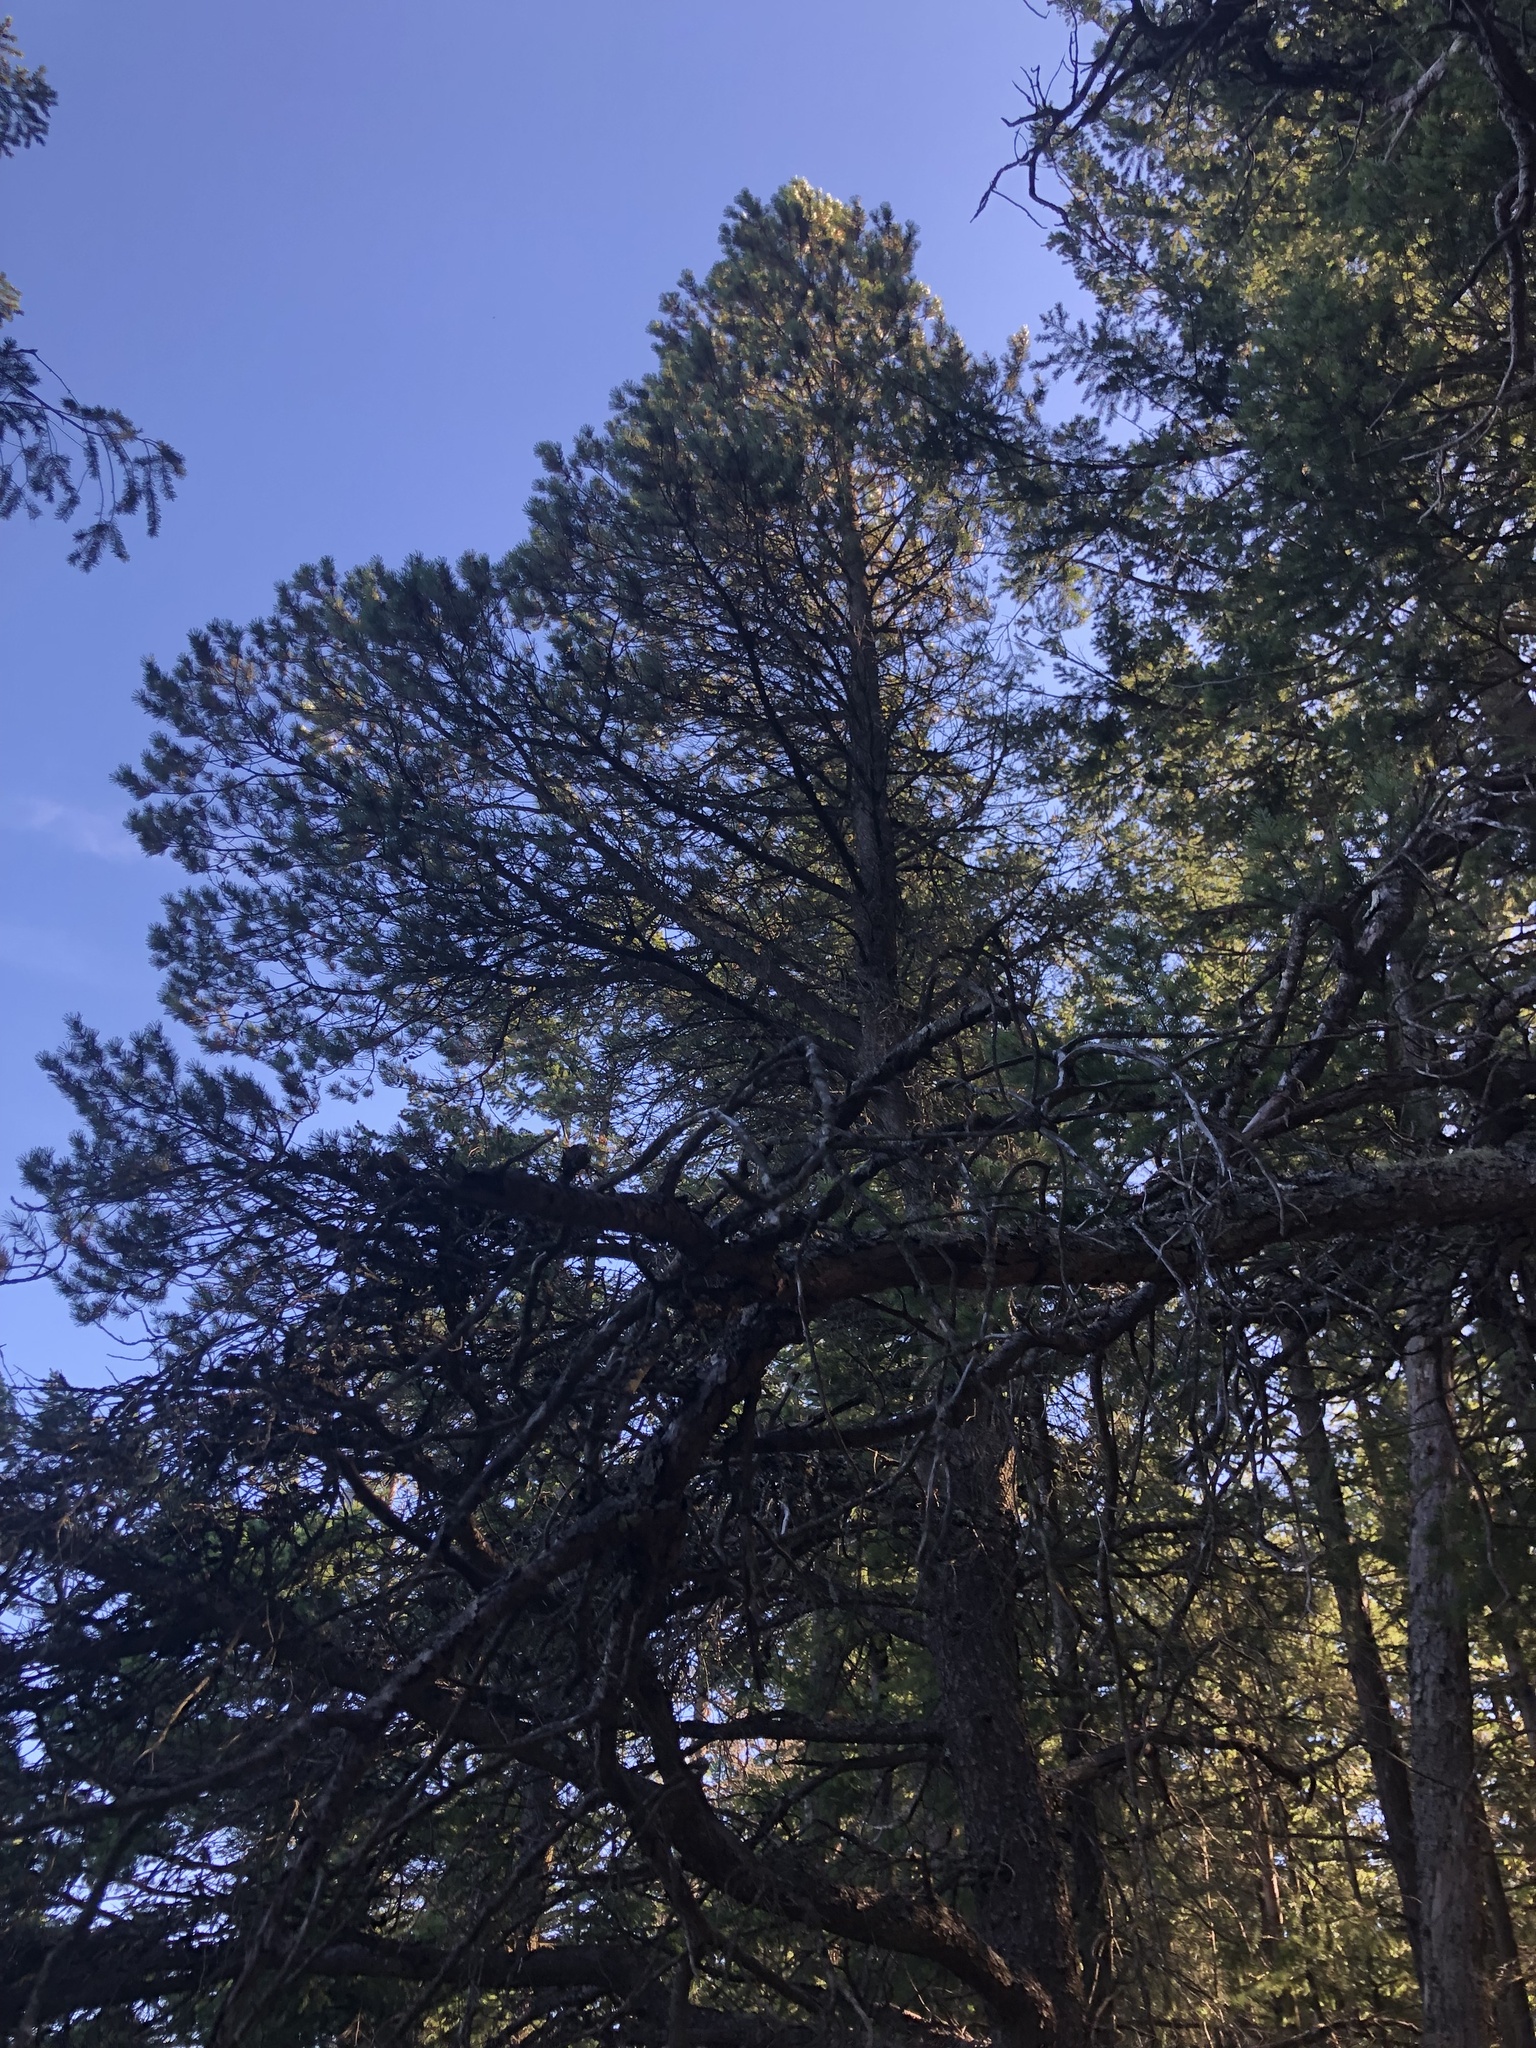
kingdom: Plantae
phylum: Tracheophyta
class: Pinopsida
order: Pinales
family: Pinaceae
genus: Pinus
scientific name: Pinus contorta
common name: Lodgepole pine
